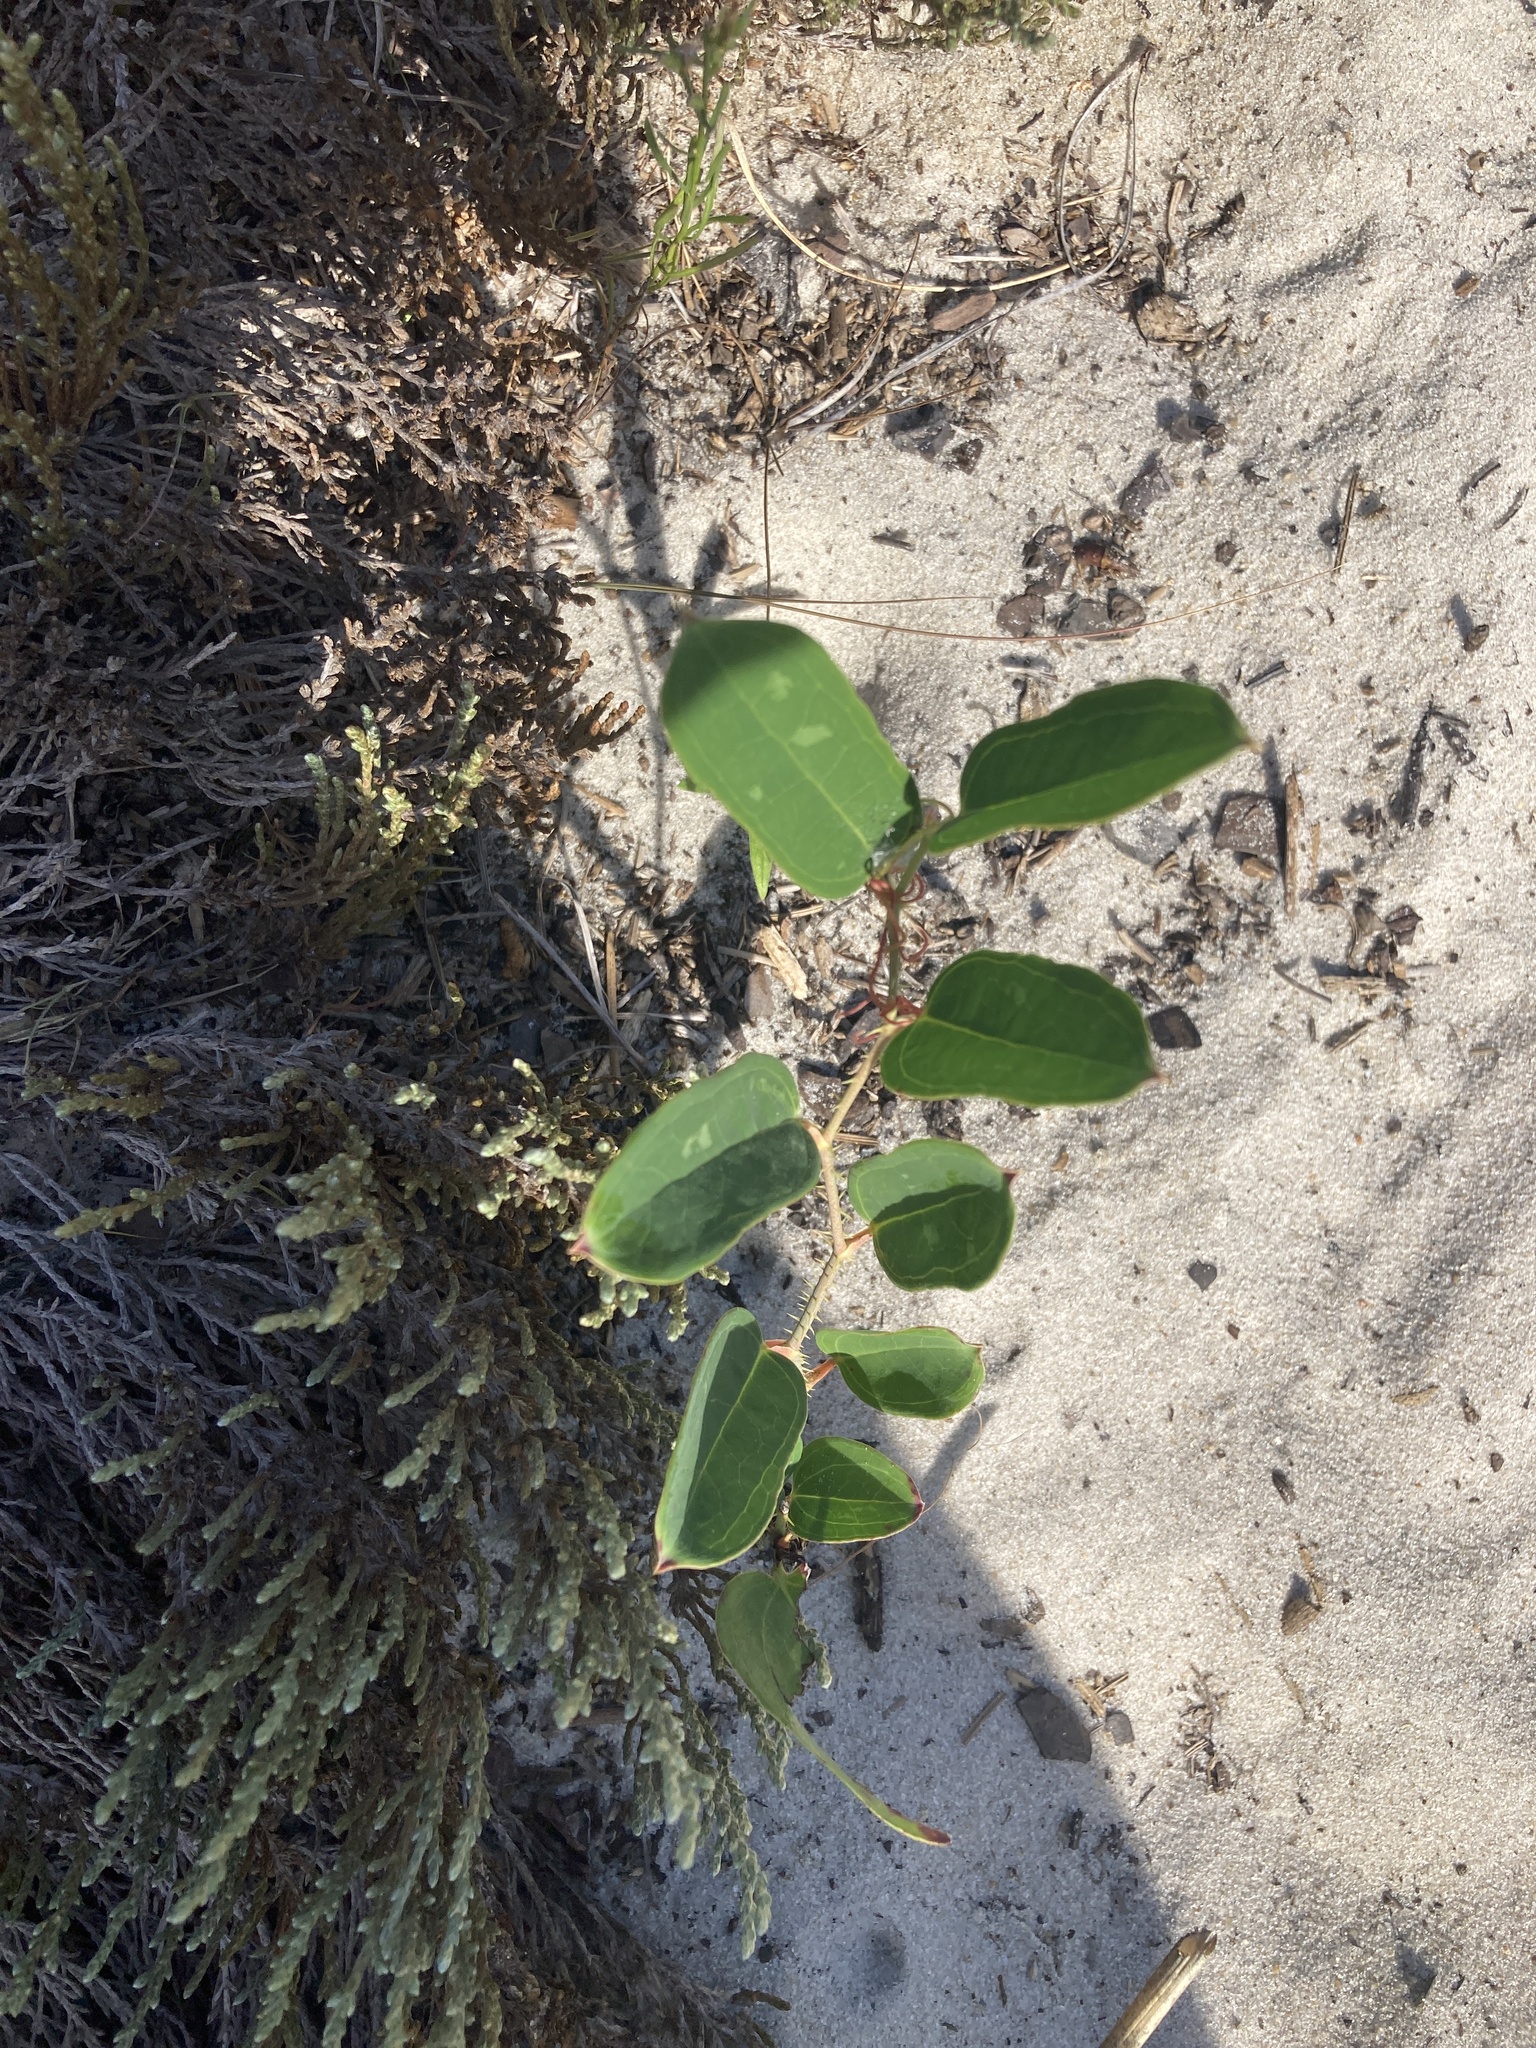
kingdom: Plantae
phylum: Tracheophyta
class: Liliopsida
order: Liliales
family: Smilacaceae
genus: Smilax
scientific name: Smilax glauca
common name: Cat greenbrier
